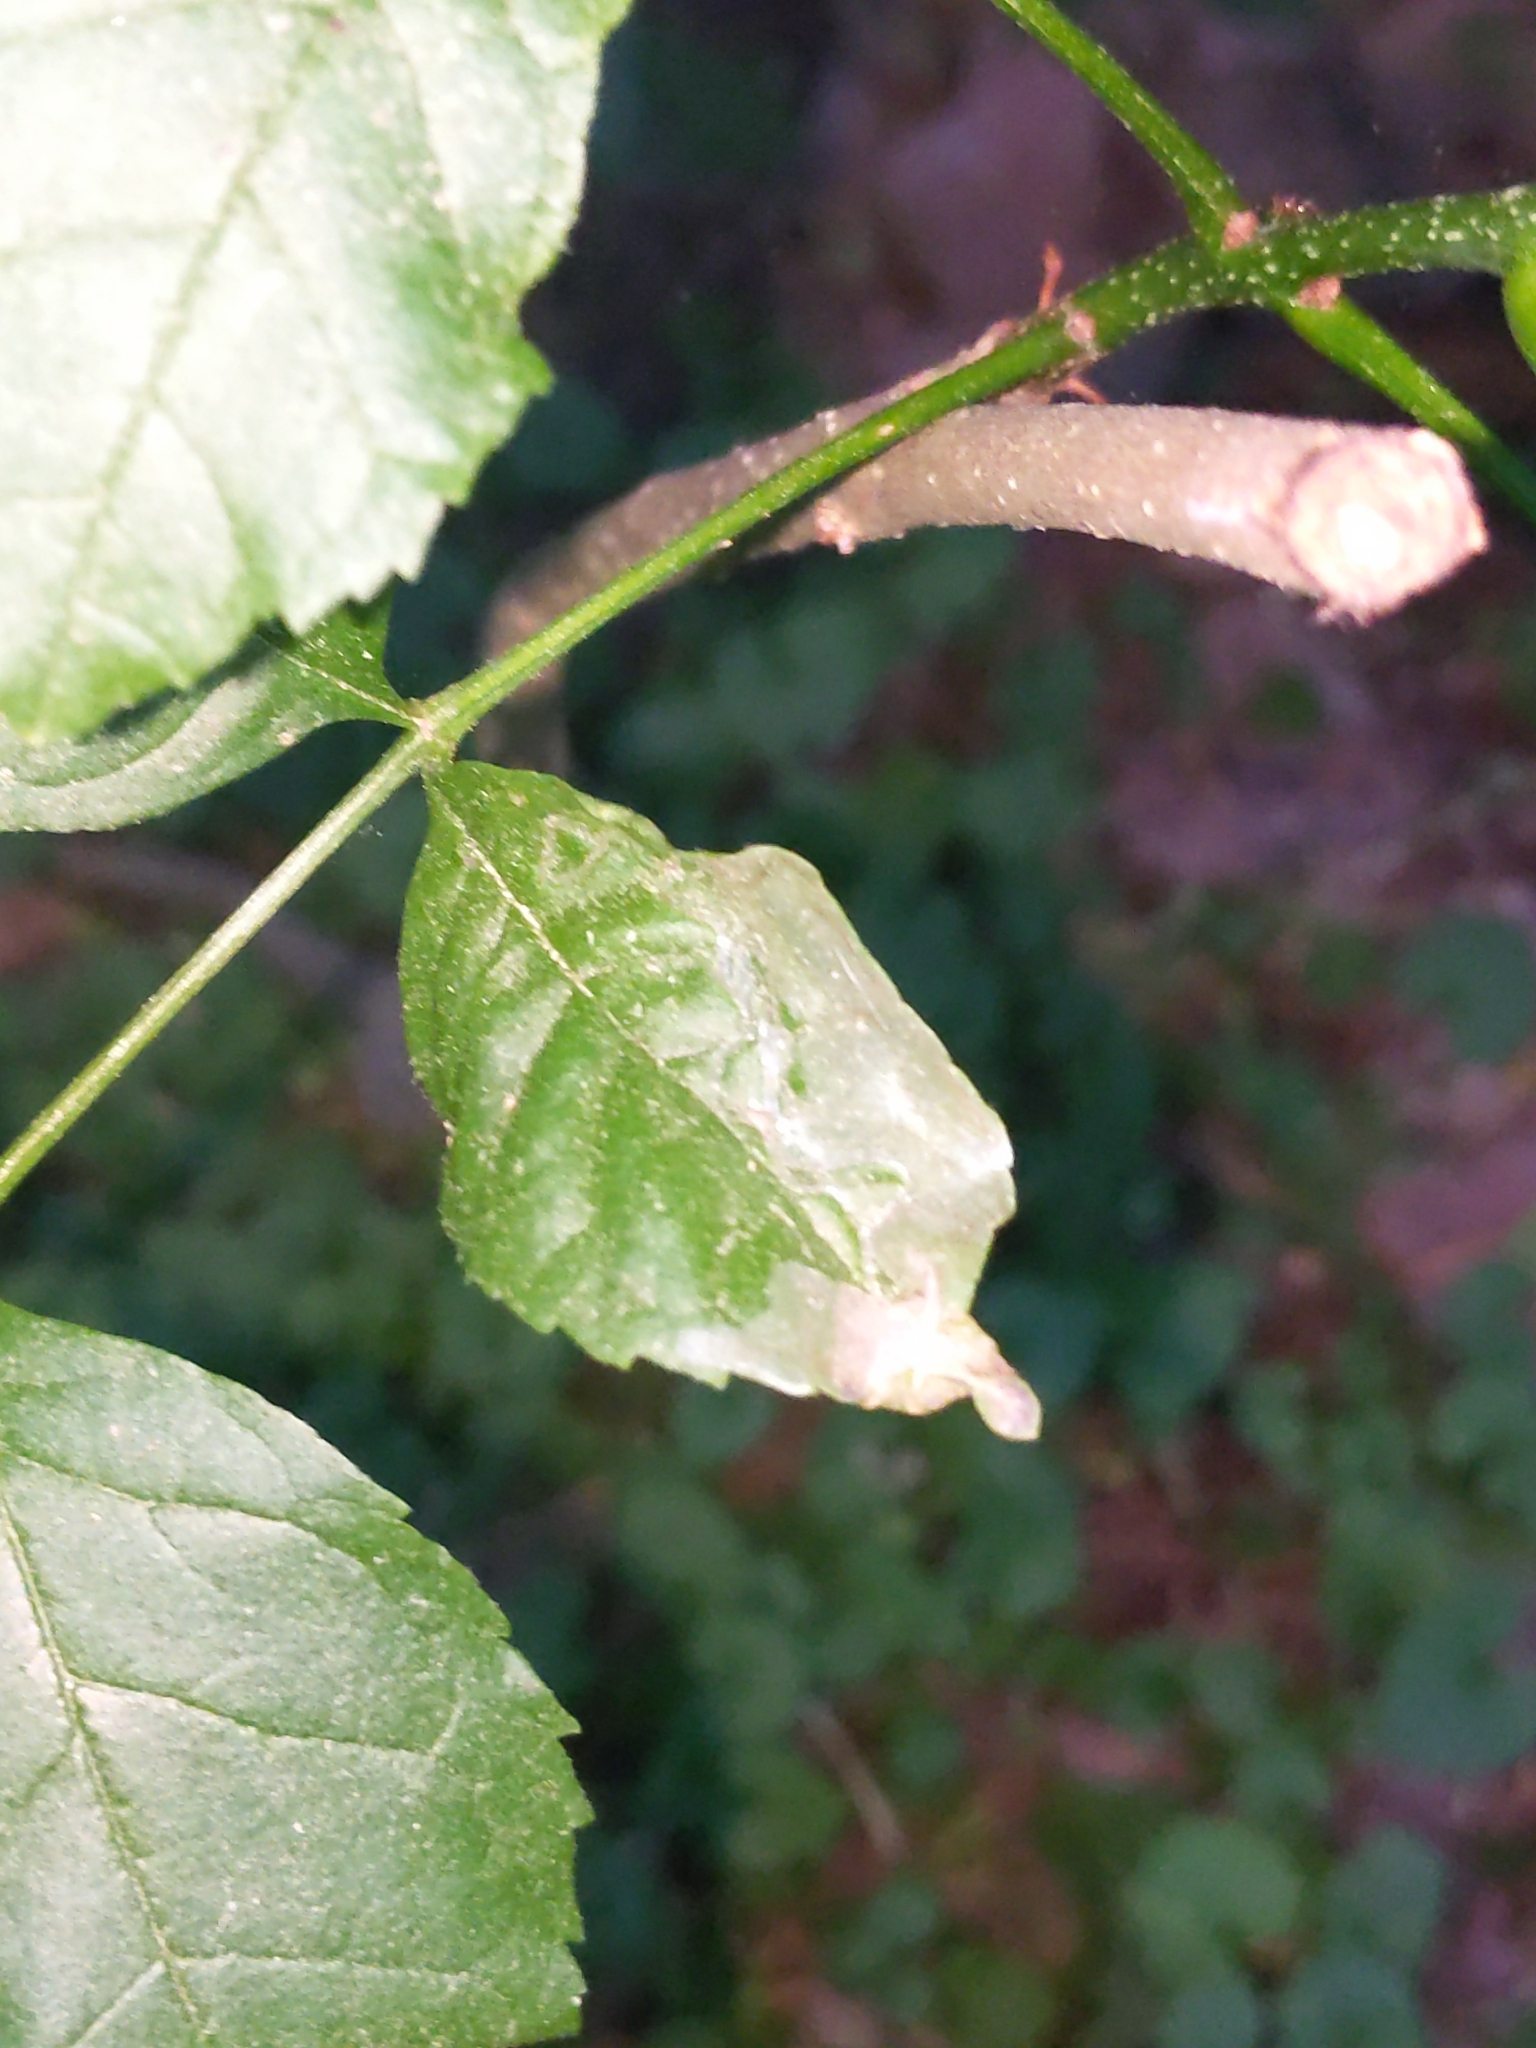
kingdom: Animalia
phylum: Arthropoda
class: Insecta
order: Lepidoptera
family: Gracillariidae
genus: Caloptilia
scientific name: Caloptilia fraxinella
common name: Ash leaf cone roller
